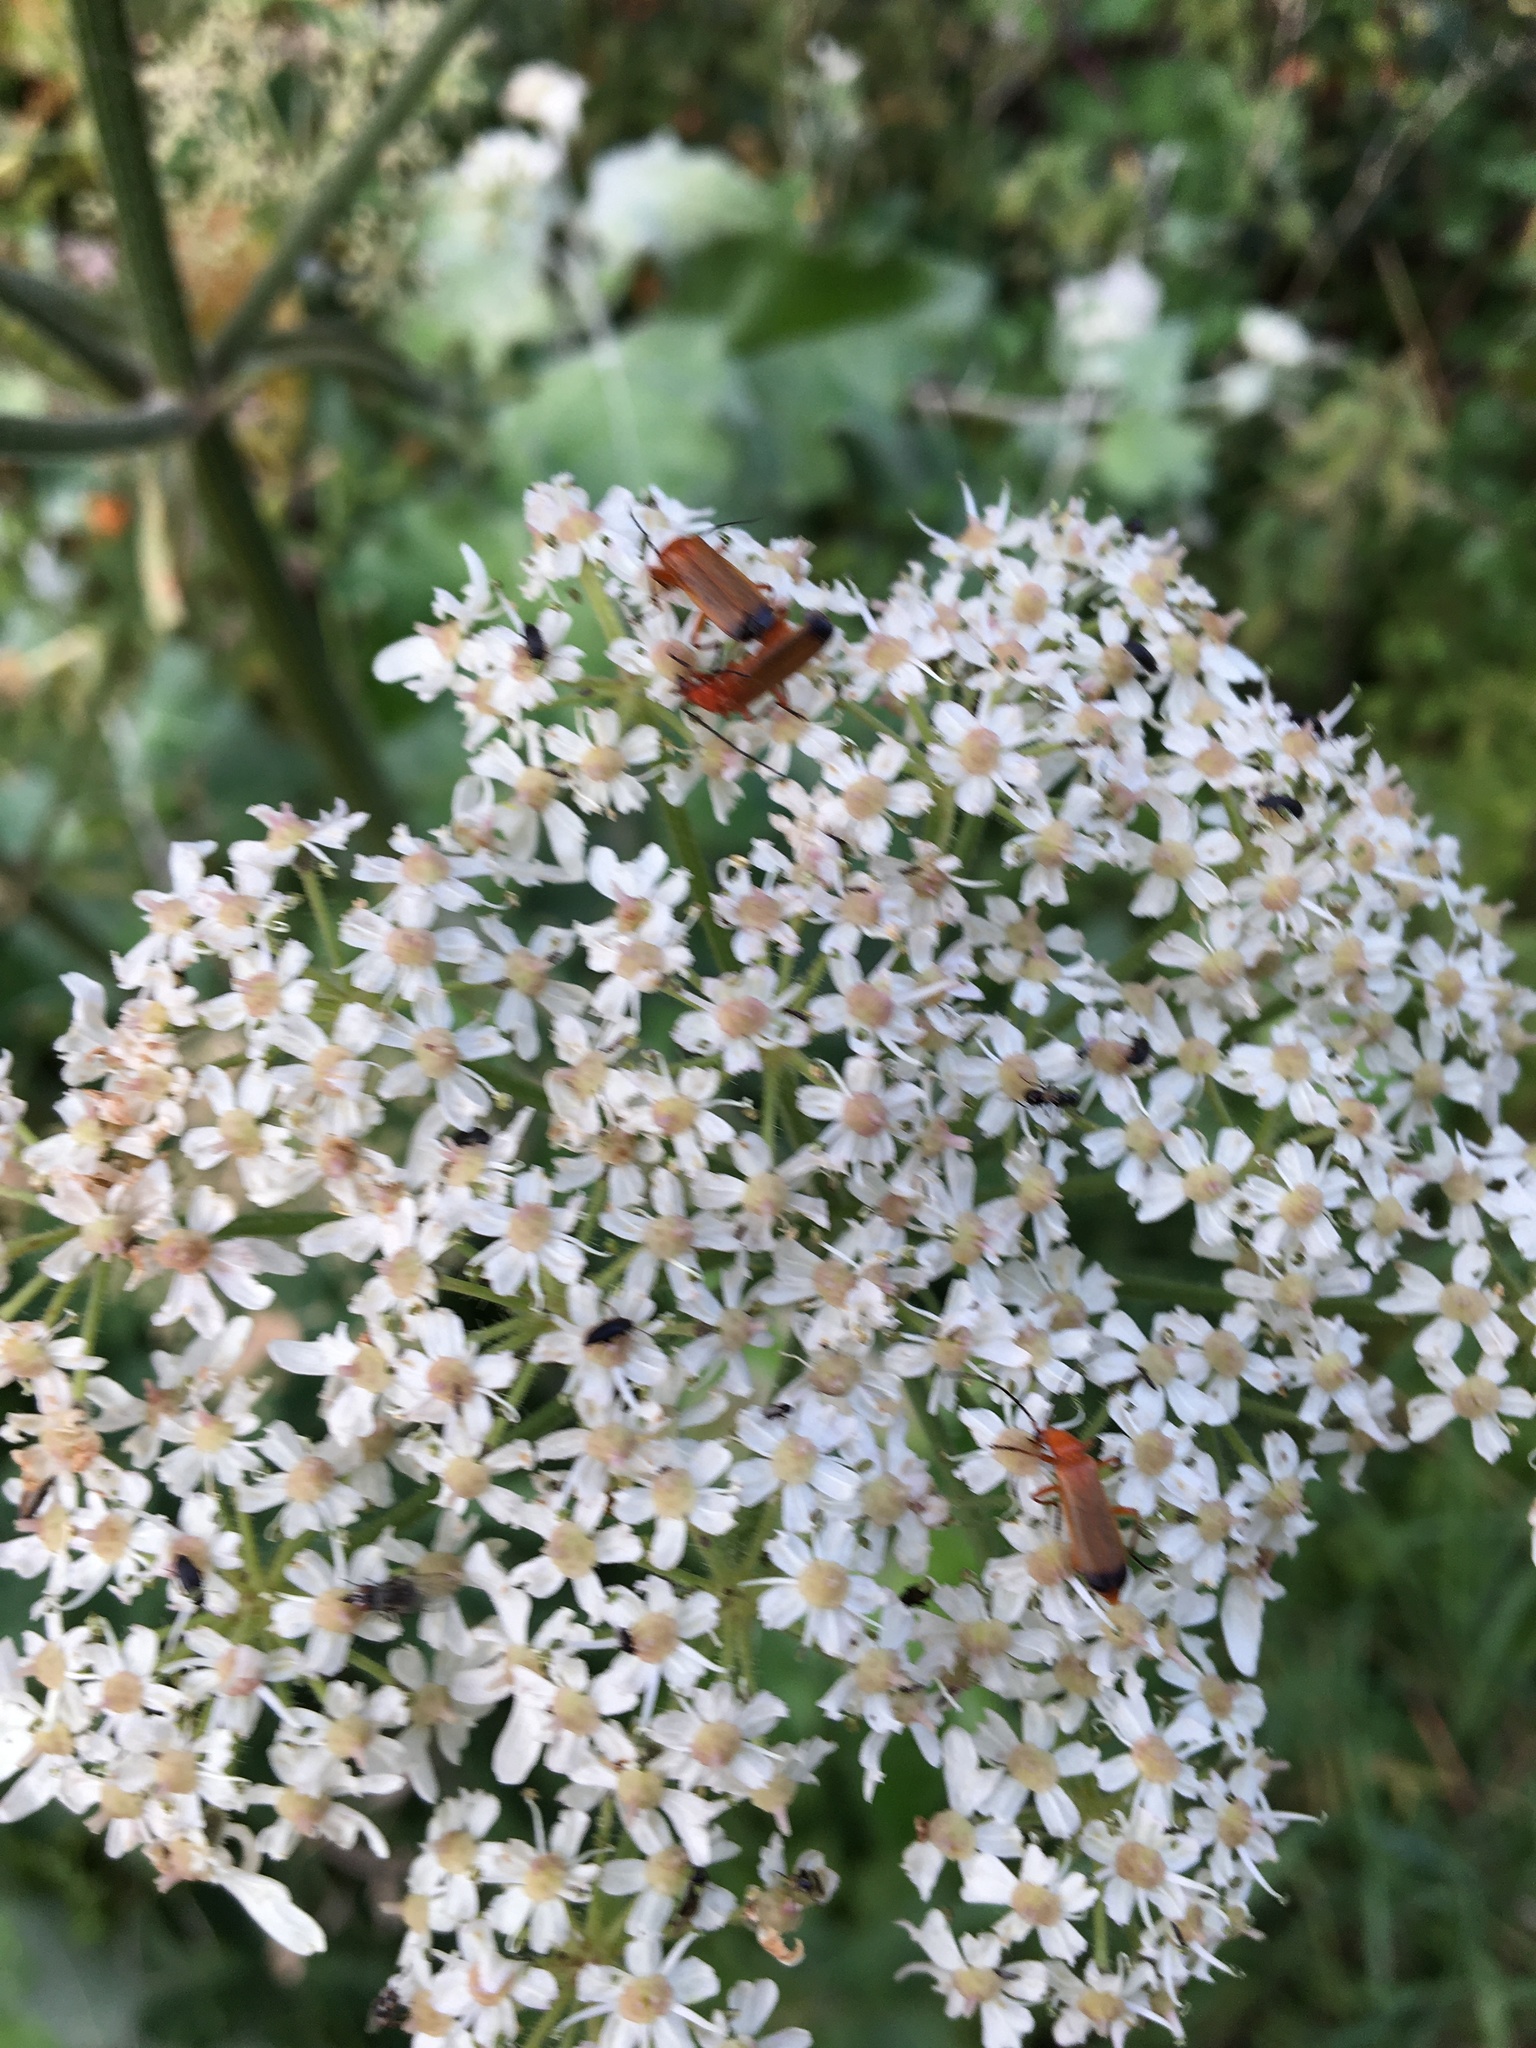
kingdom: Animalia
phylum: Arthropoda
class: Insecta
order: Coleoptera
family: Cantharidae
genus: Rhagonycha
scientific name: Rhagonycha fulva
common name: Common red soldier beetle
